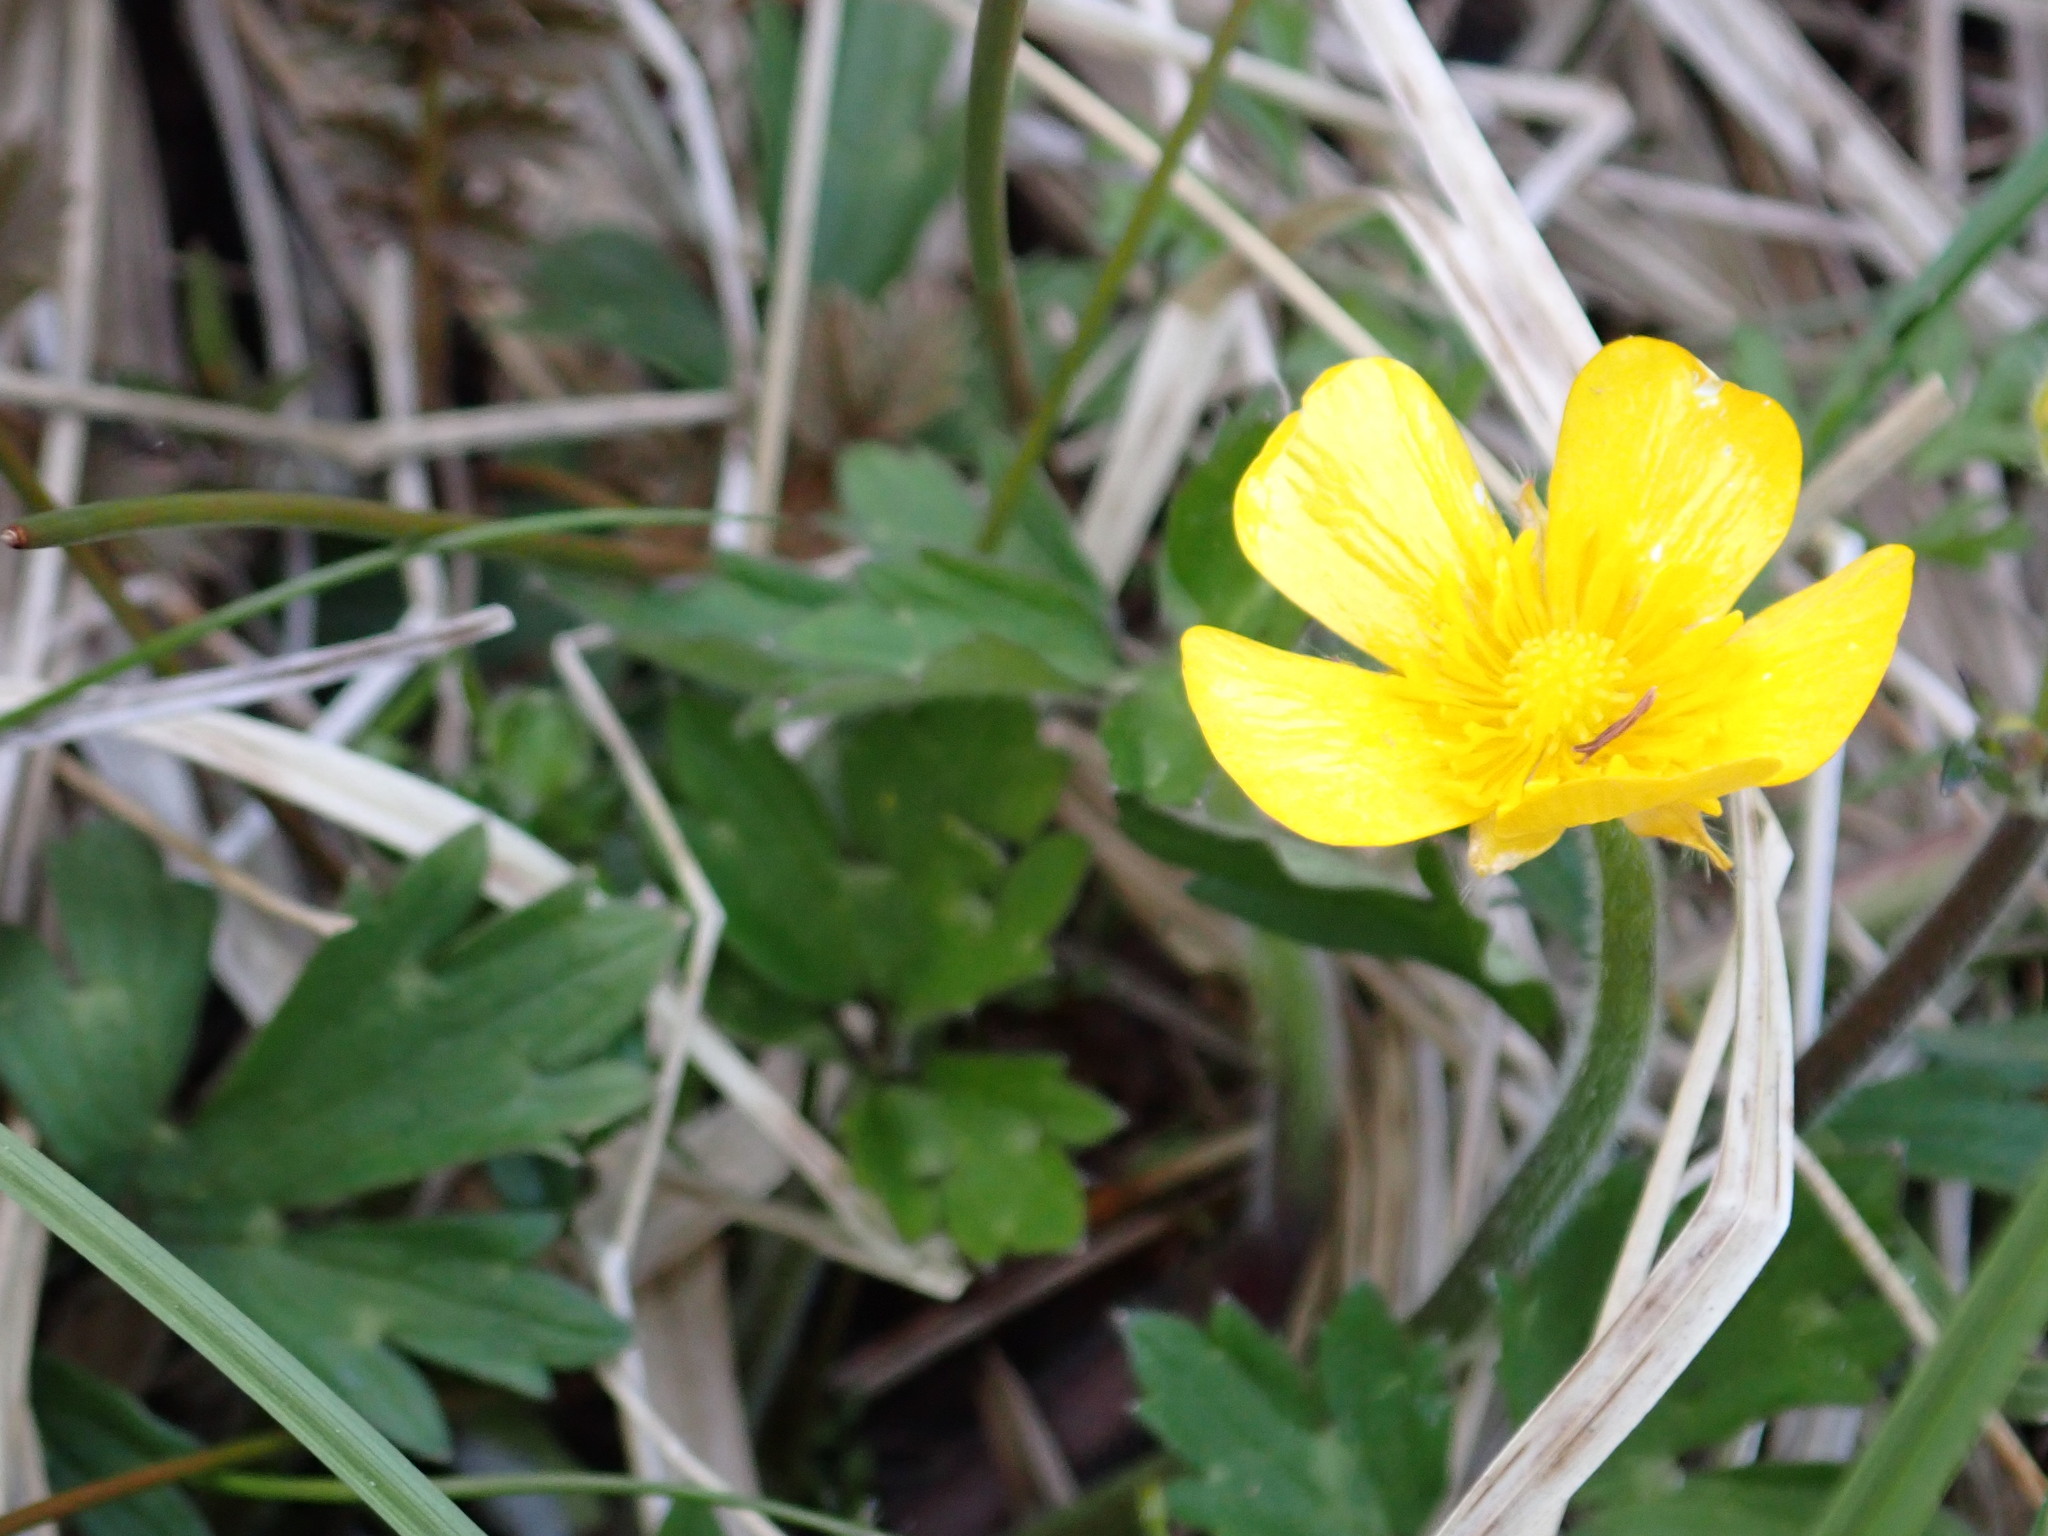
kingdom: Plantae
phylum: Tracheophyta
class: Magnoliopsida
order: Ranunculales
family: Ranunculaceae
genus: Ranunculus
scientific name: Ranunculus repens
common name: Creeping buttercup
